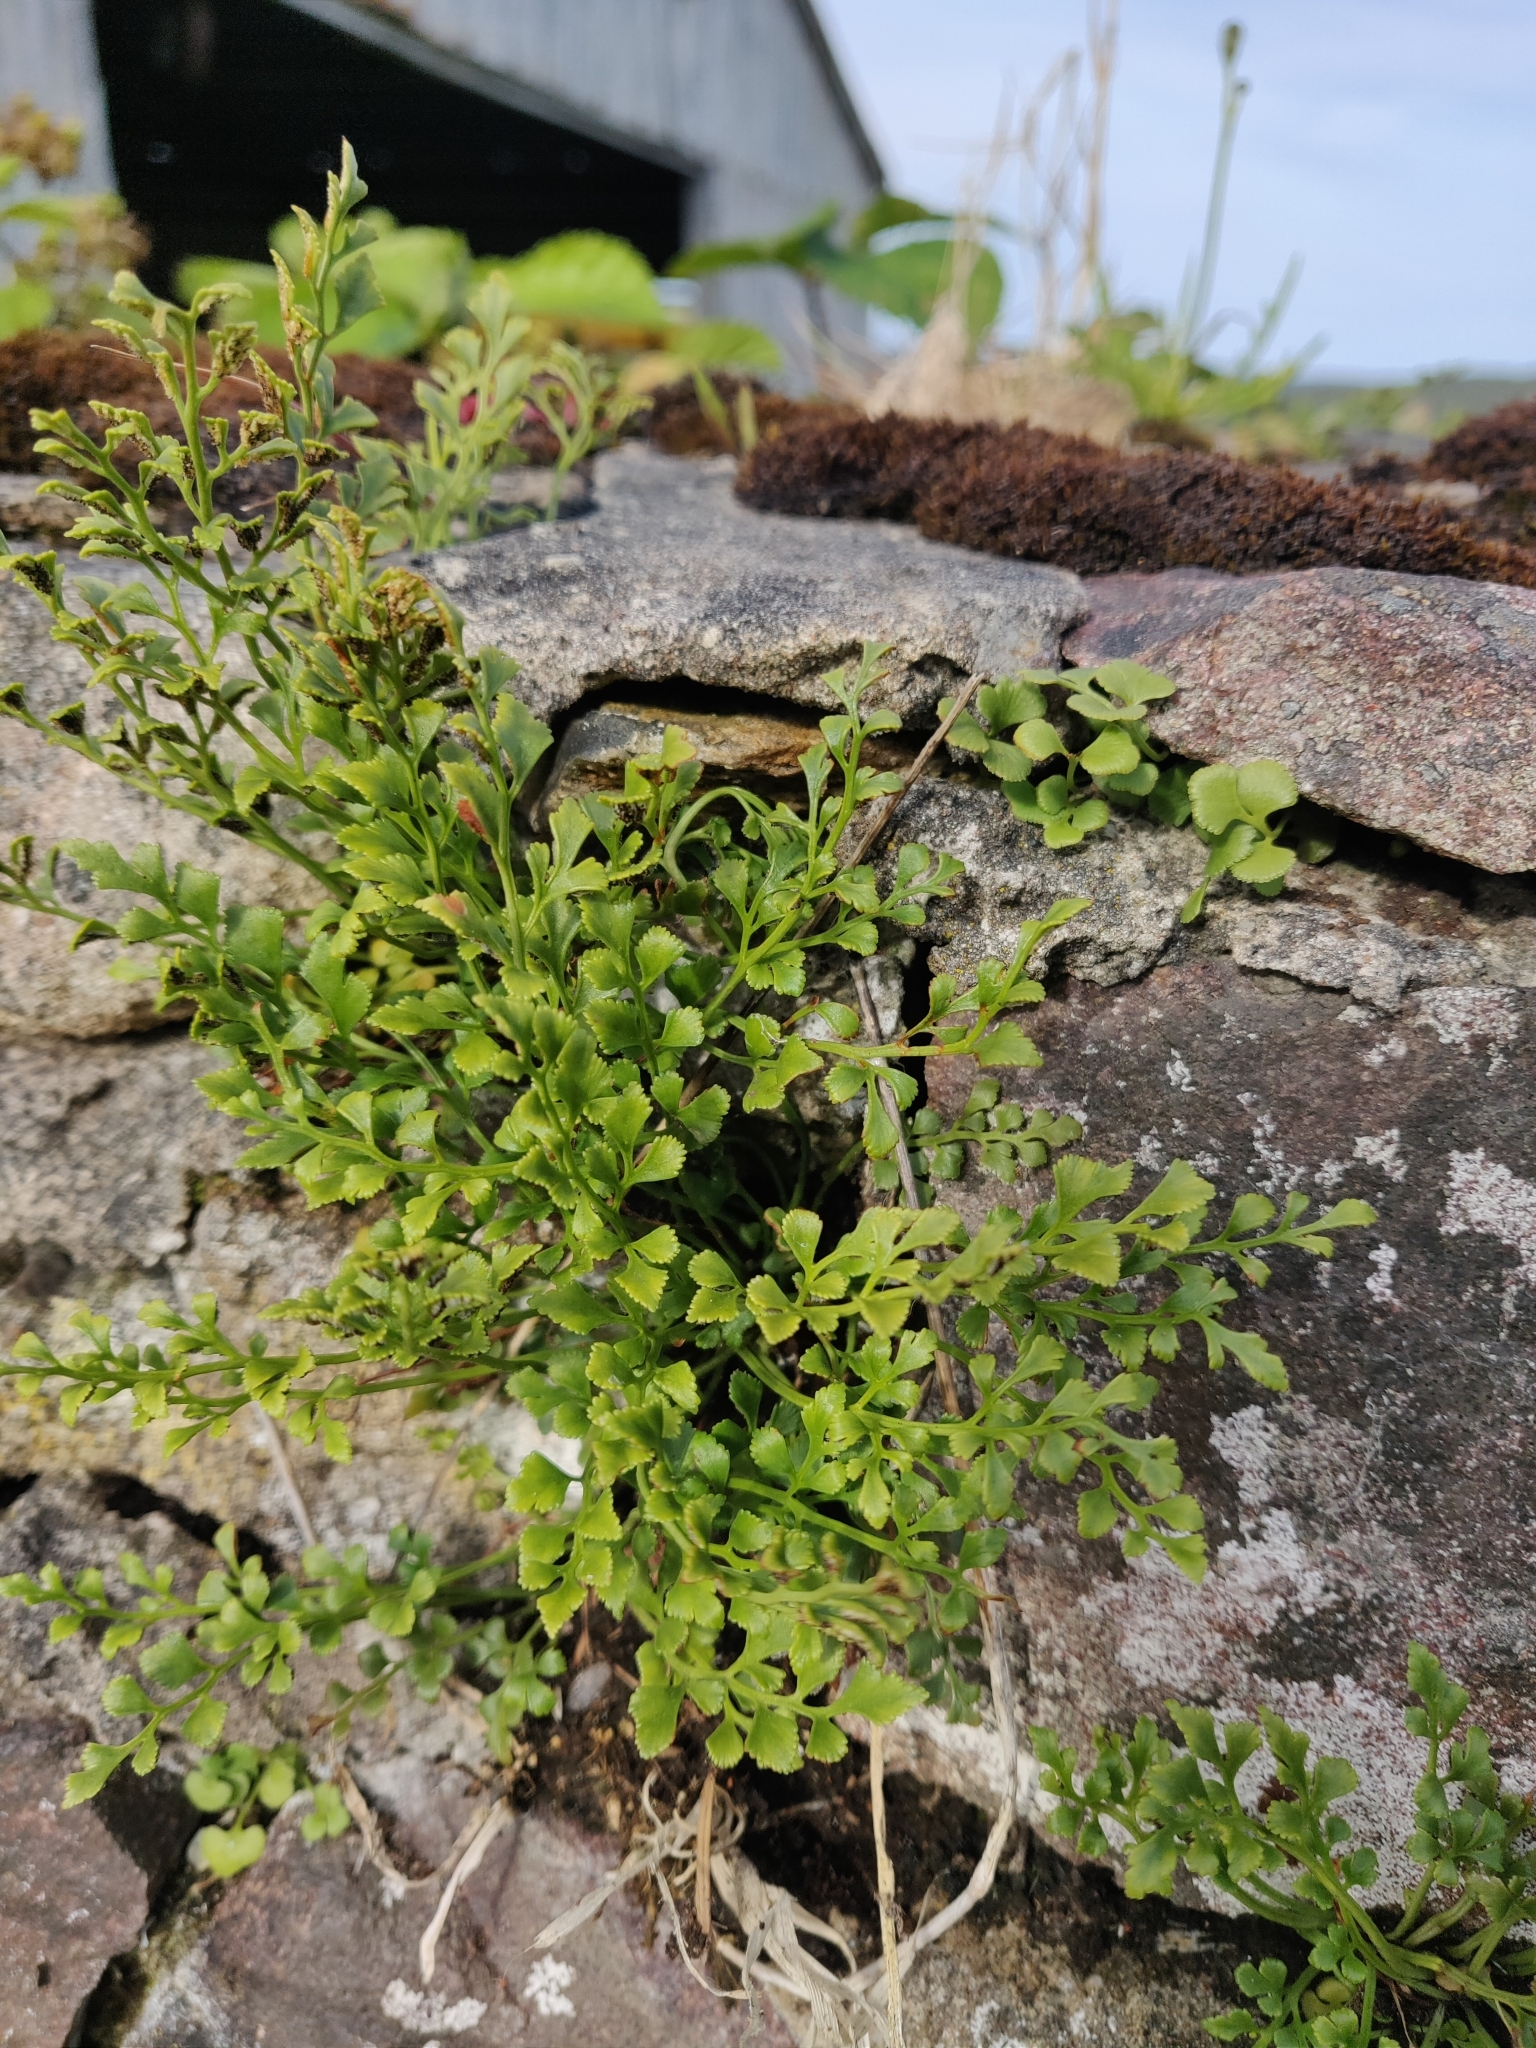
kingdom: Plantae
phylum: Tracheophyta
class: Polypodiopsida
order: Polypodiales
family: Aspleniaceae
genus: Asplenium
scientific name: Asplenium ruta-muraria
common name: Wall-rue
